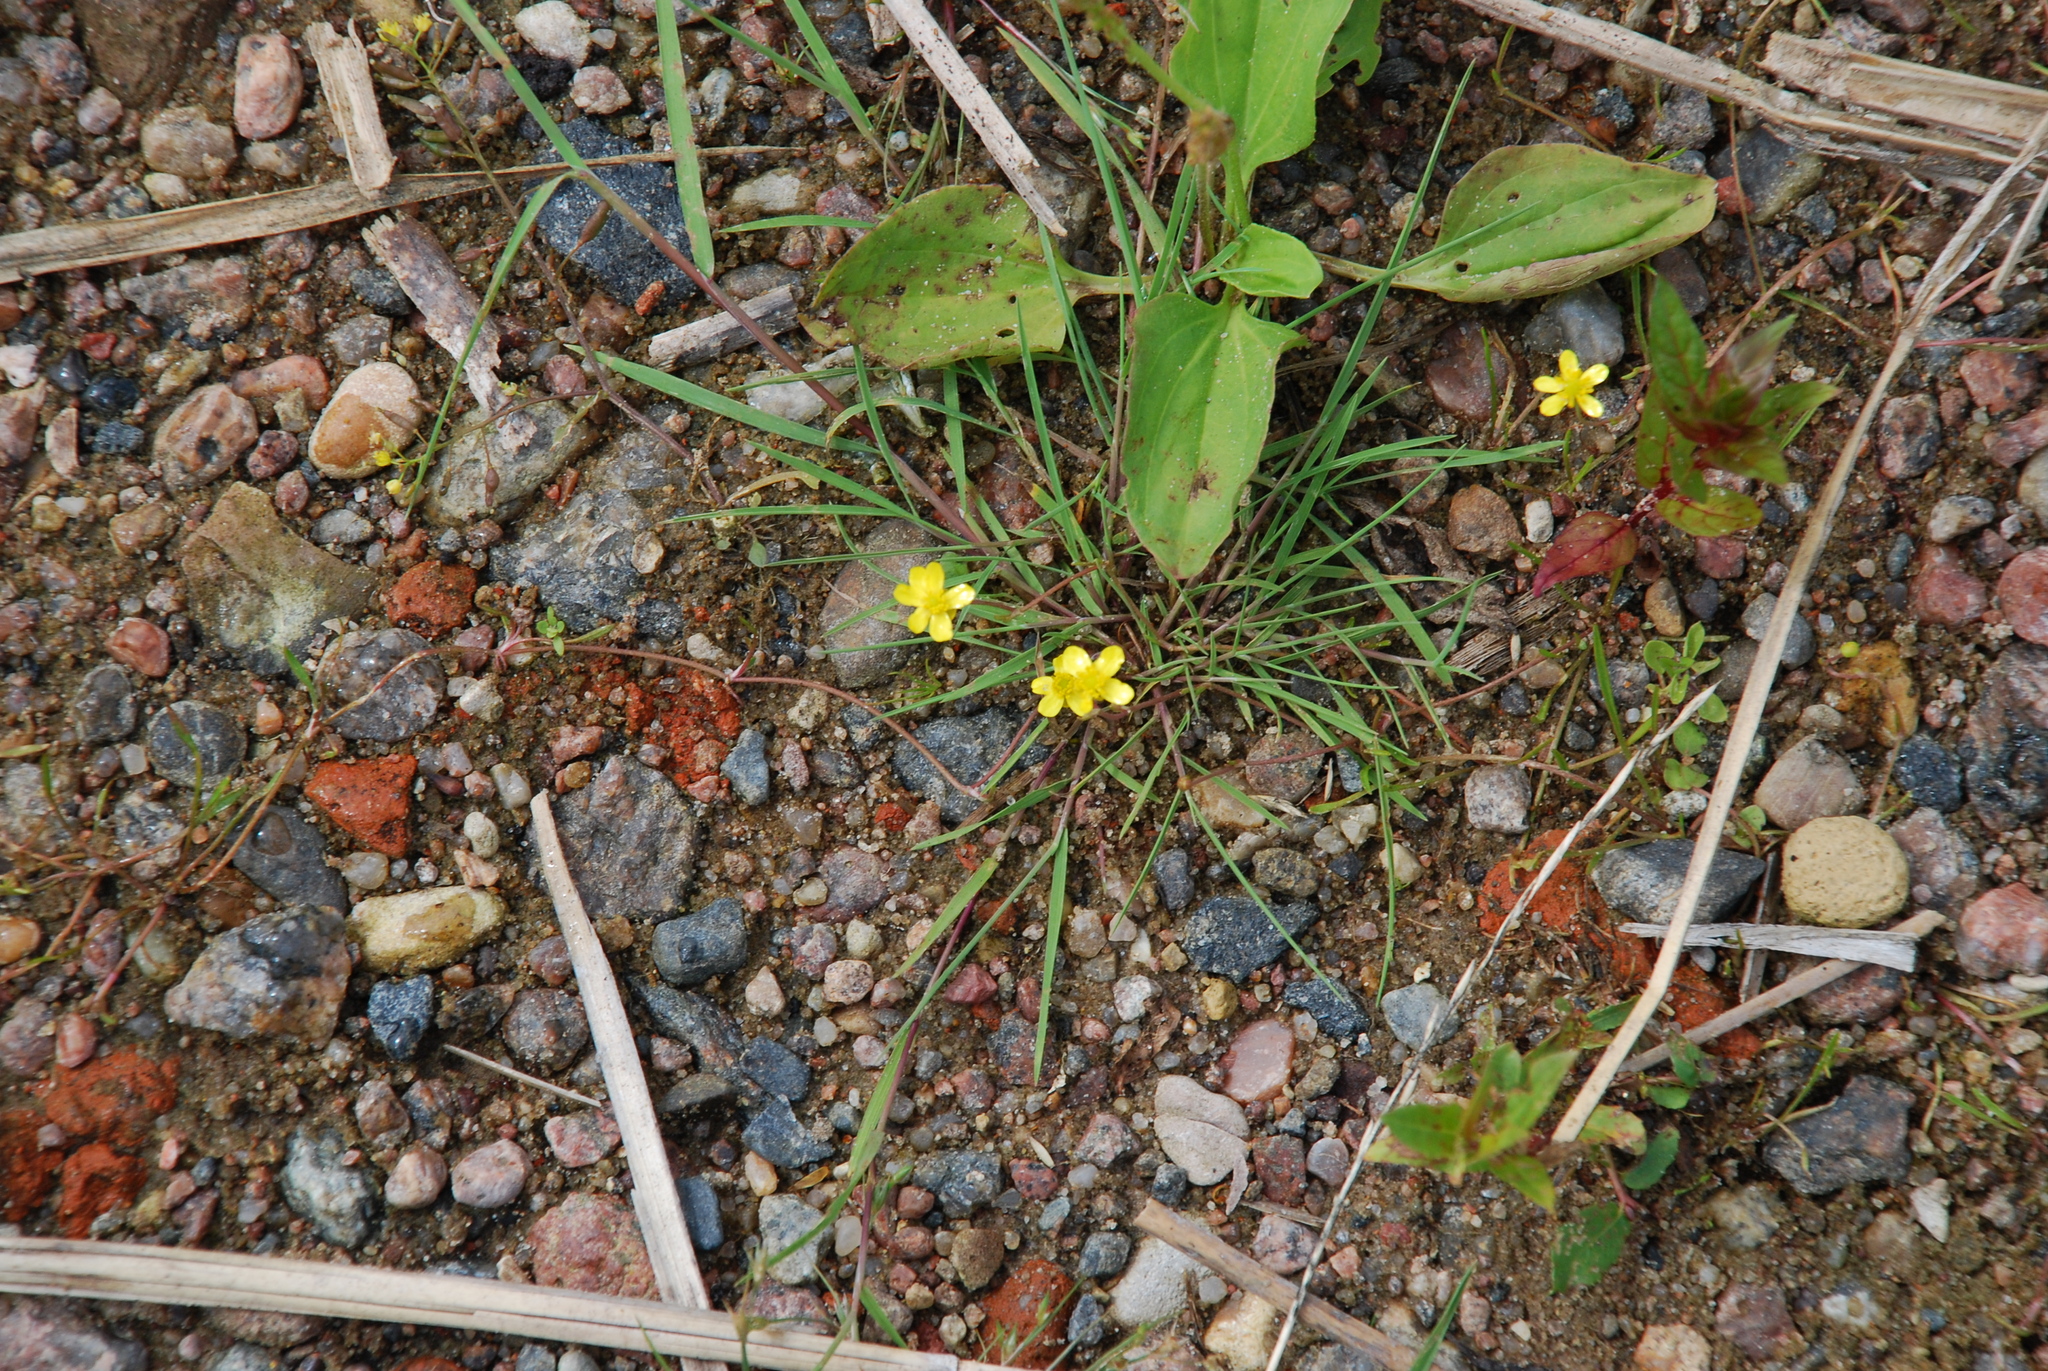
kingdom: Plantae
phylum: Tracheophyta
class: Magnoliopsida
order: Ranunculales
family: Ranunculaceae
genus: Ranunculus
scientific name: Ranunculus reptans
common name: Creeping spearwort
